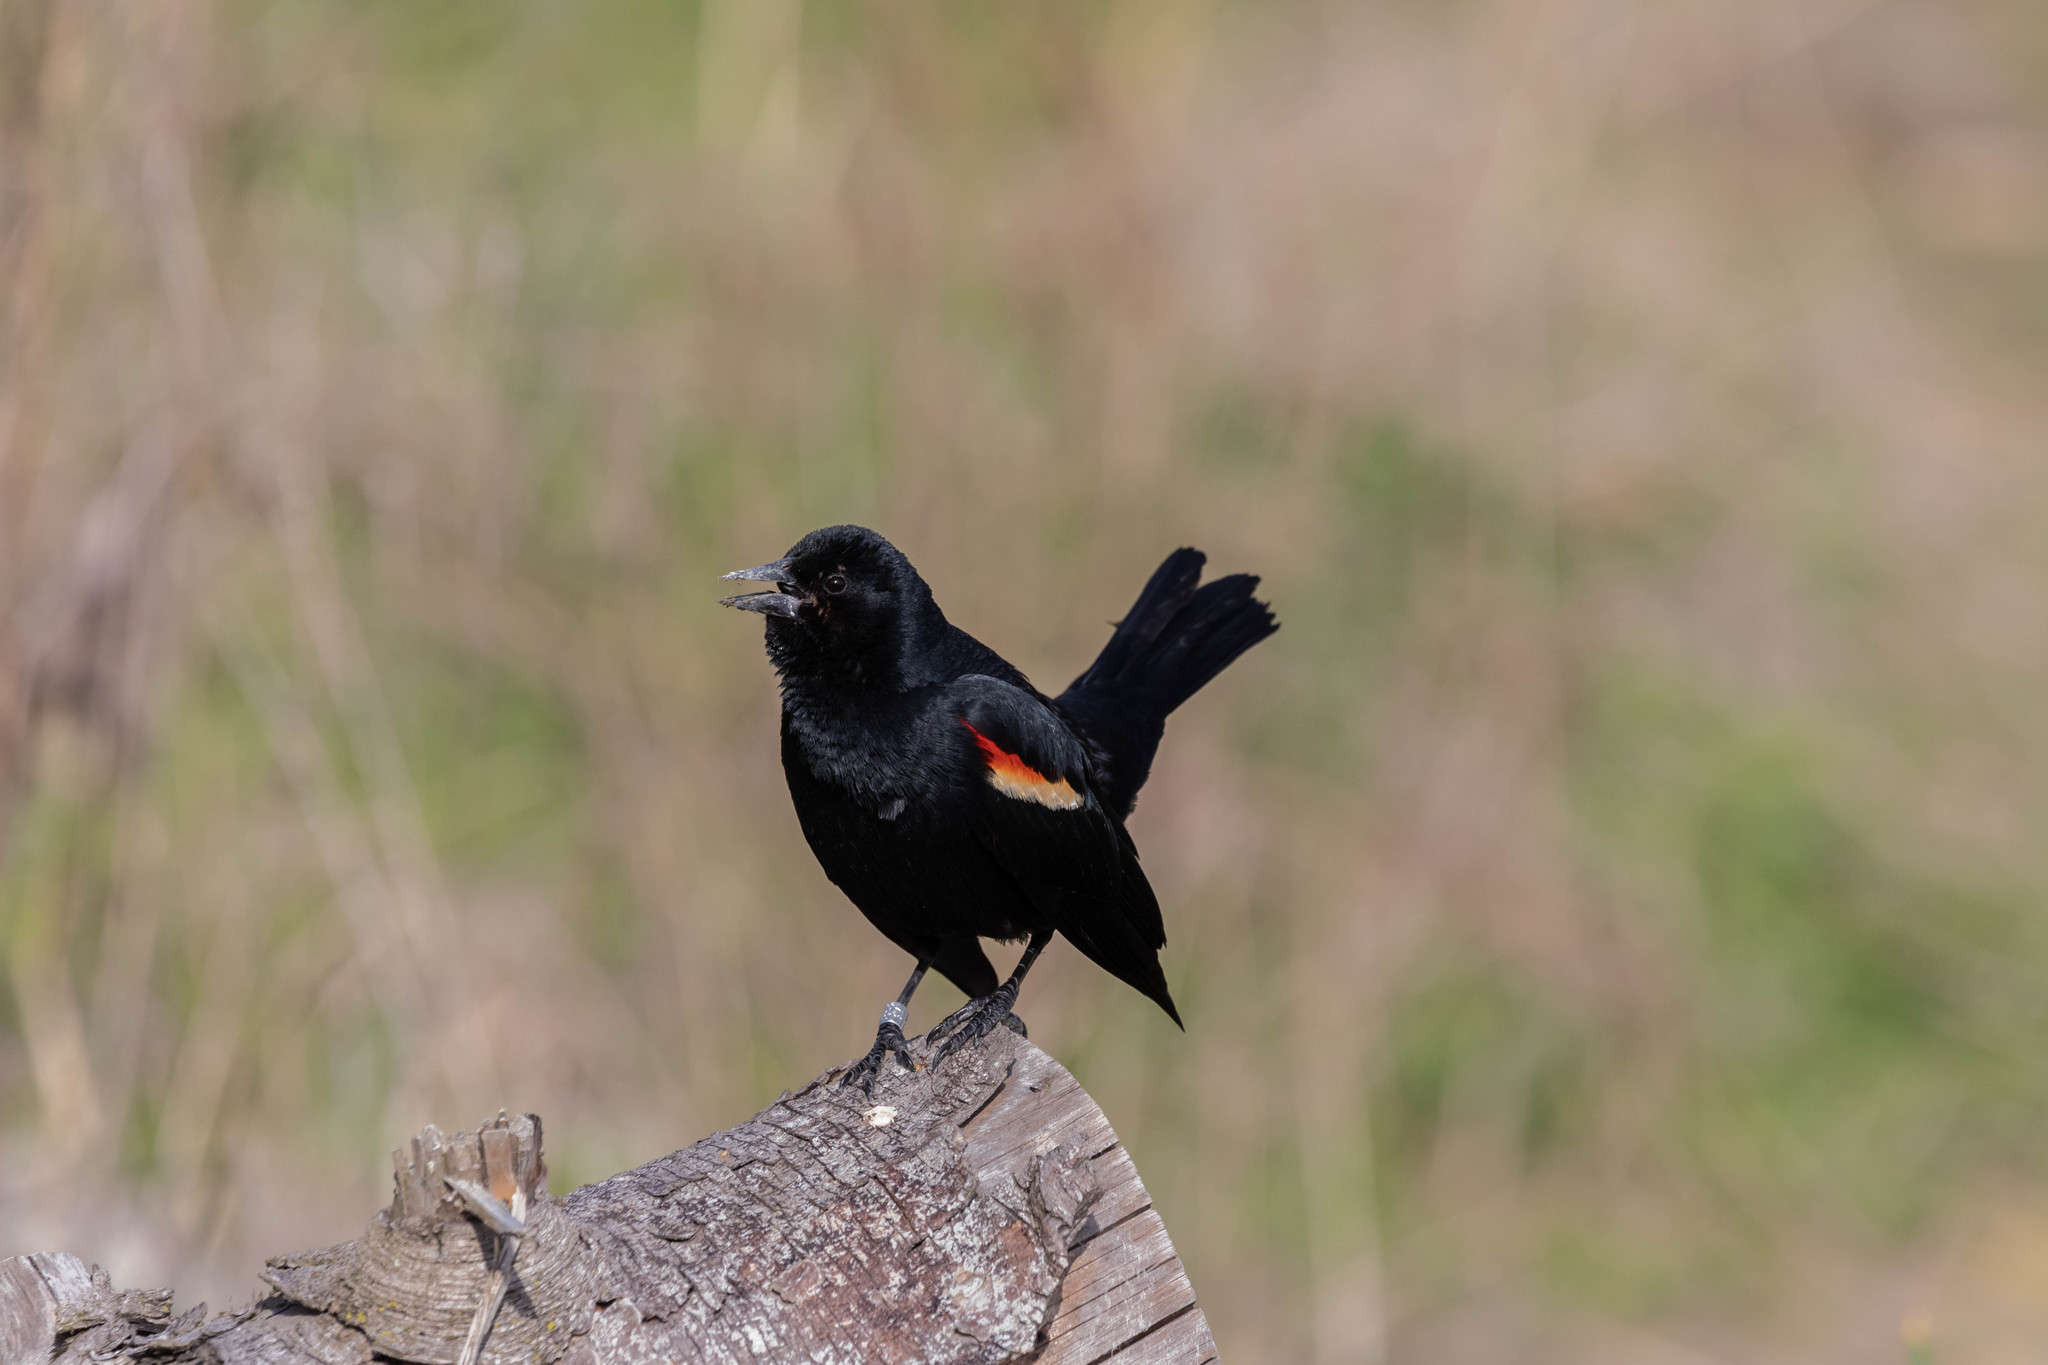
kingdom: Animalia
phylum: Chordata
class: Aves
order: Passeriformes
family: Icteridae
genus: Agelaius
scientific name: Agelaius phoeniceus
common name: Red-winged blackbird
